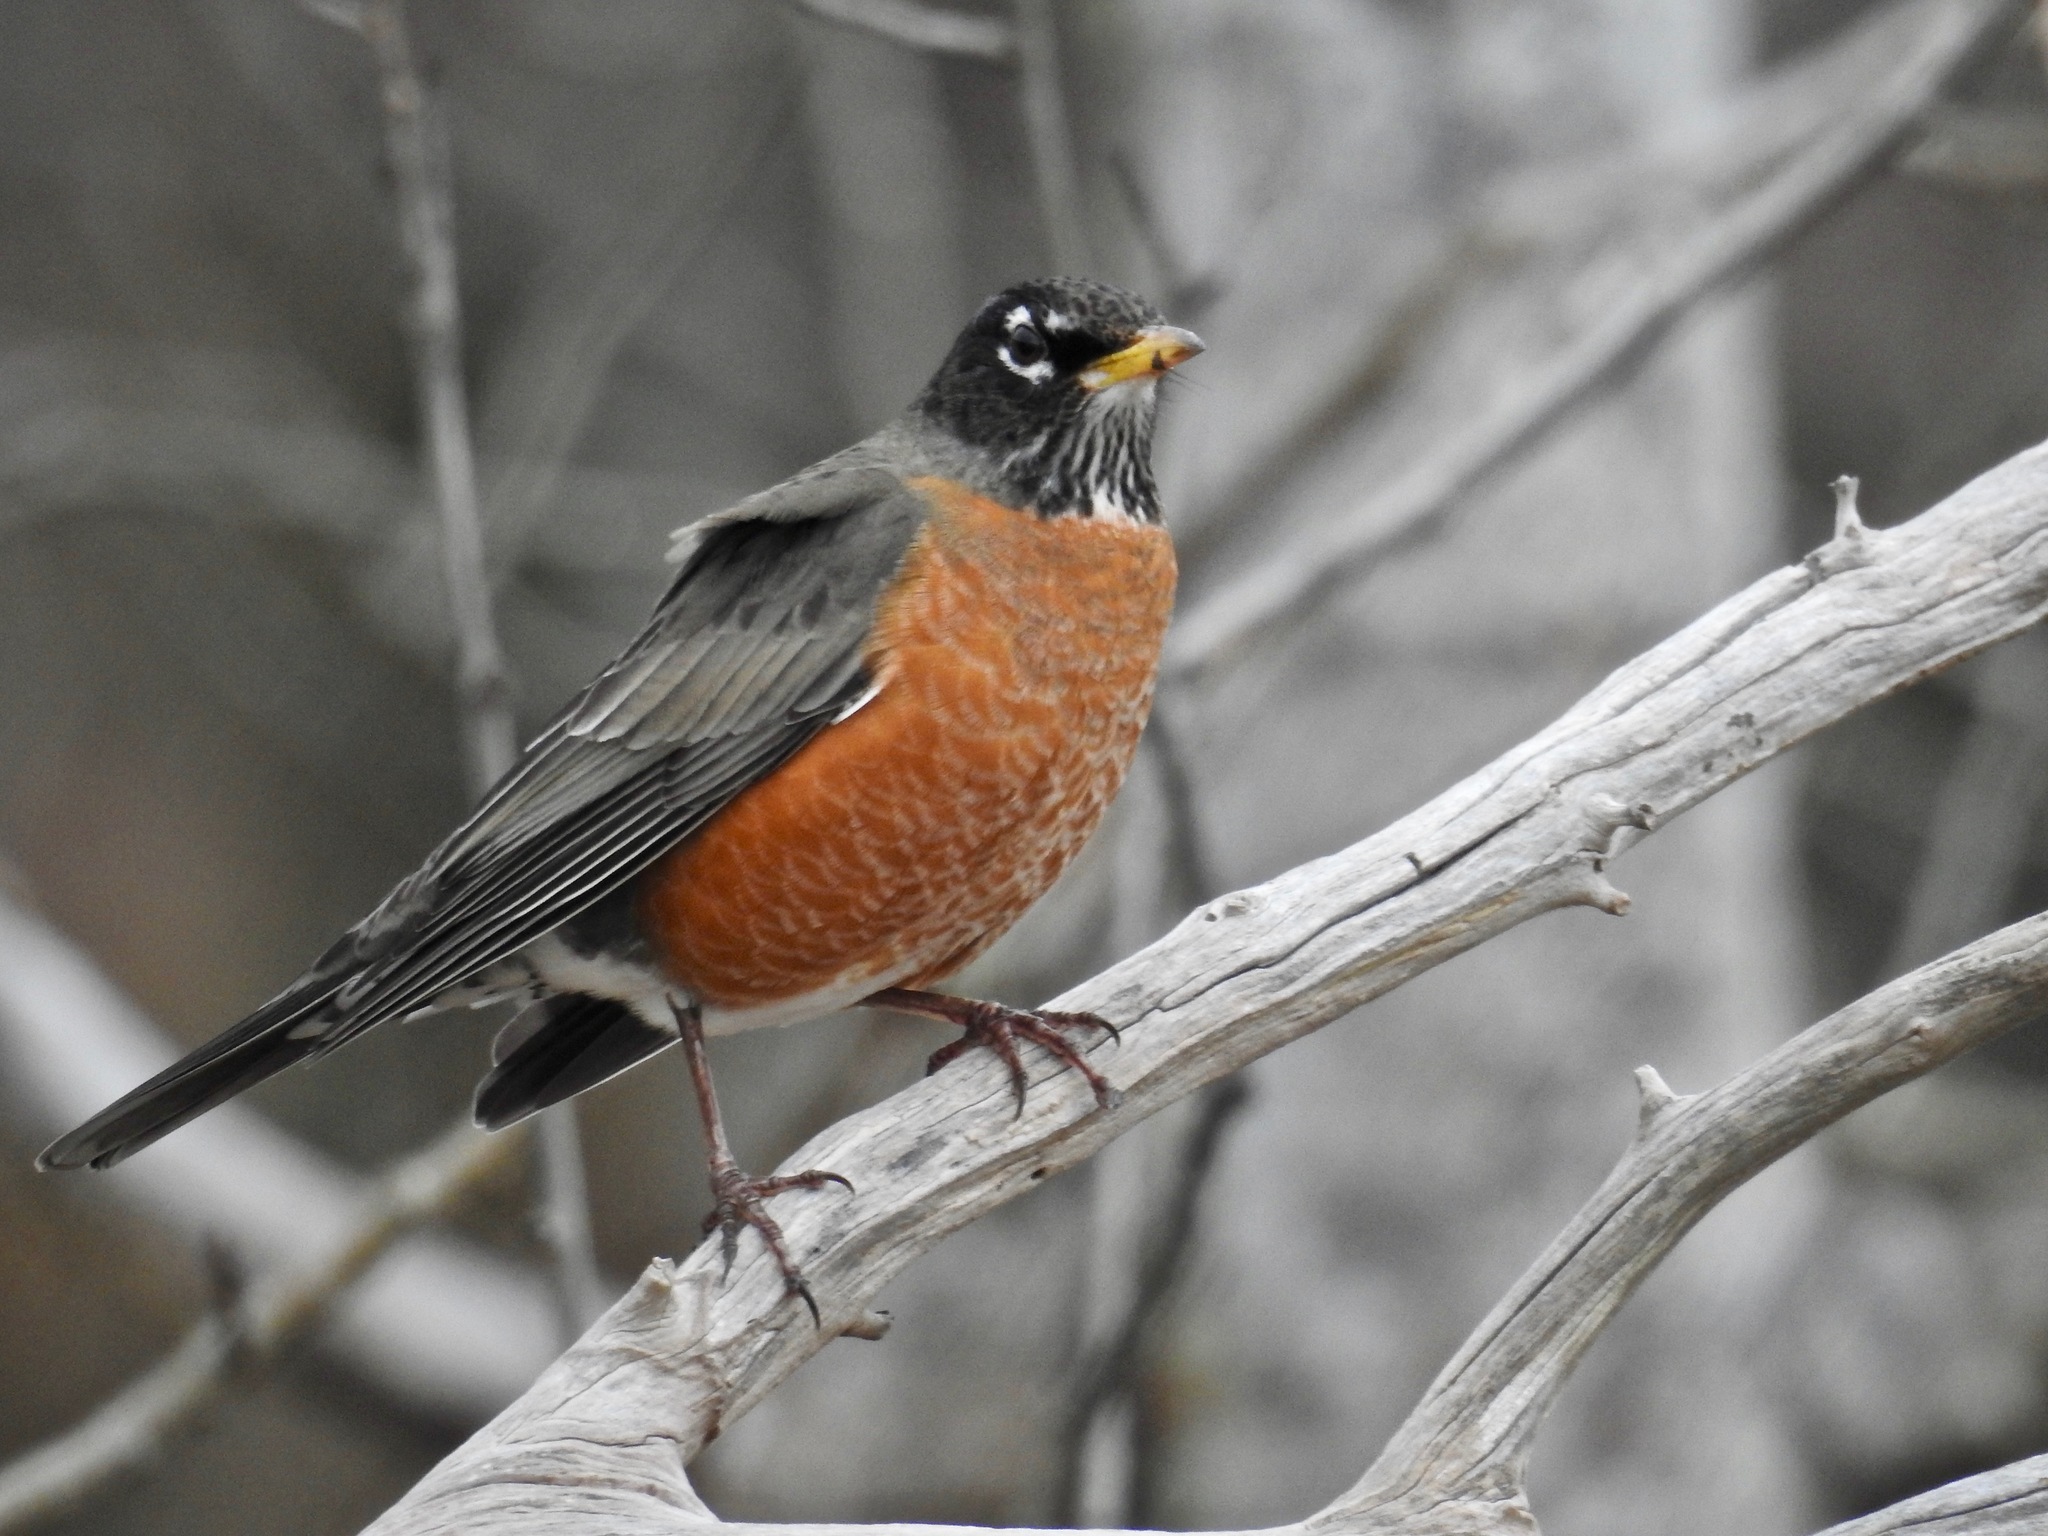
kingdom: Animalia
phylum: Chordata
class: Aves
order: Passeriformes
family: Turdidae
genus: Turdus
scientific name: Turdus migratorius
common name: American robin
